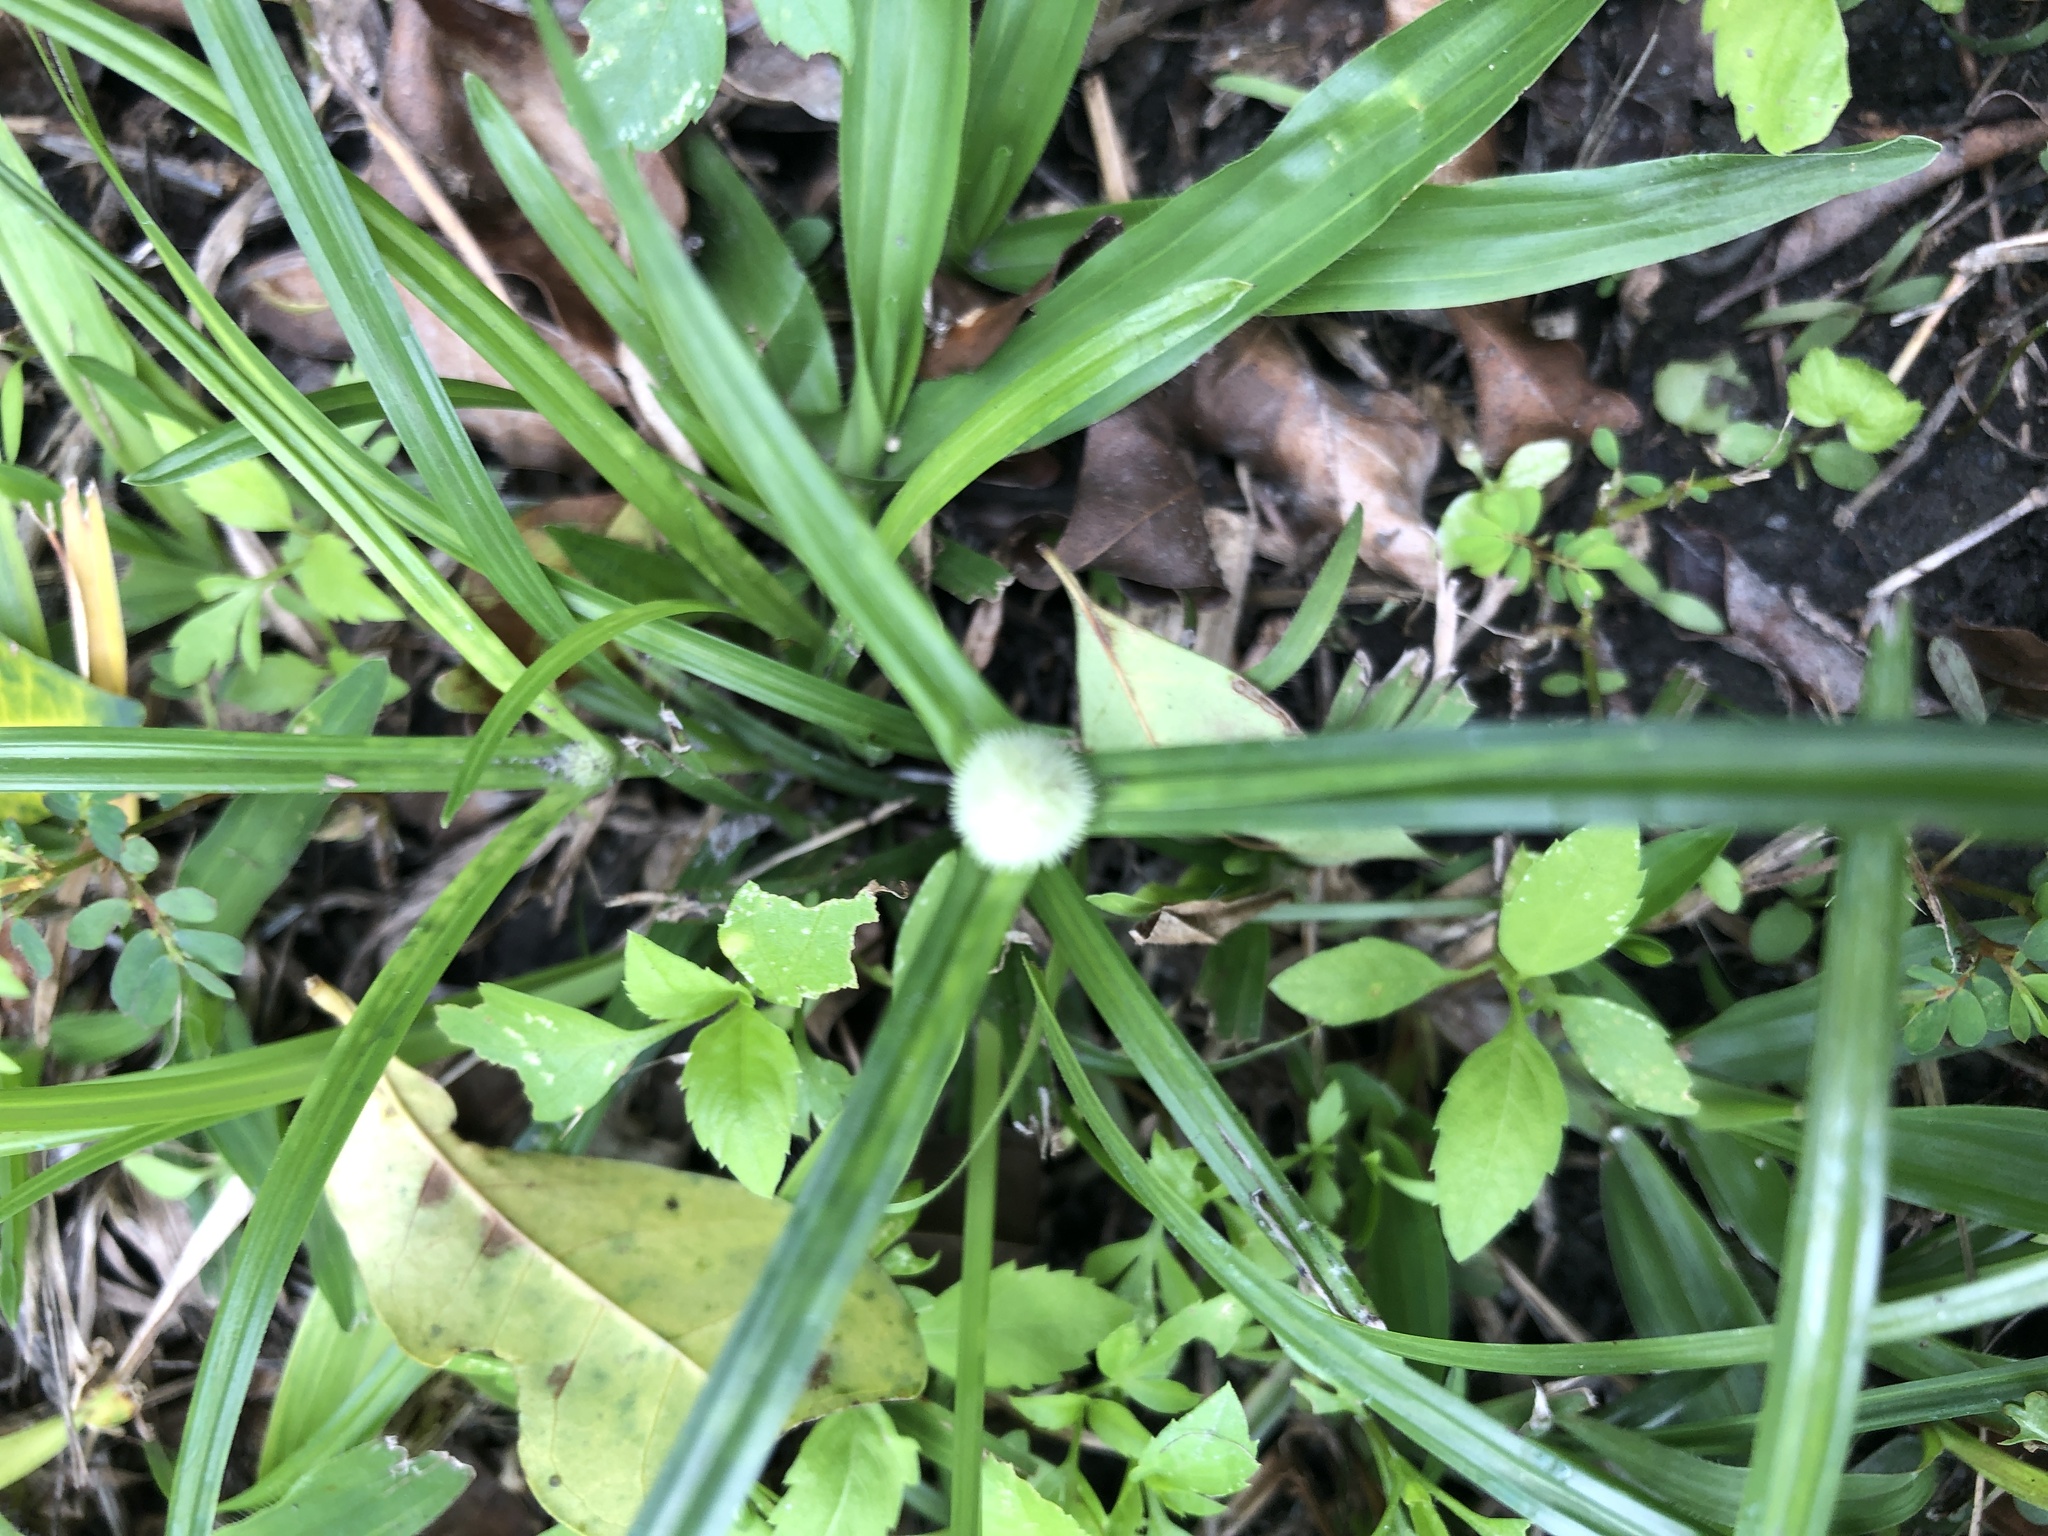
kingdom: Plantae
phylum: Tracheophyta
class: Liliopsida
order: Poales
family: Cyperaceae
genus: Cyperus
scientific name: Cyperus mindorensis
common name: Flatsedge
